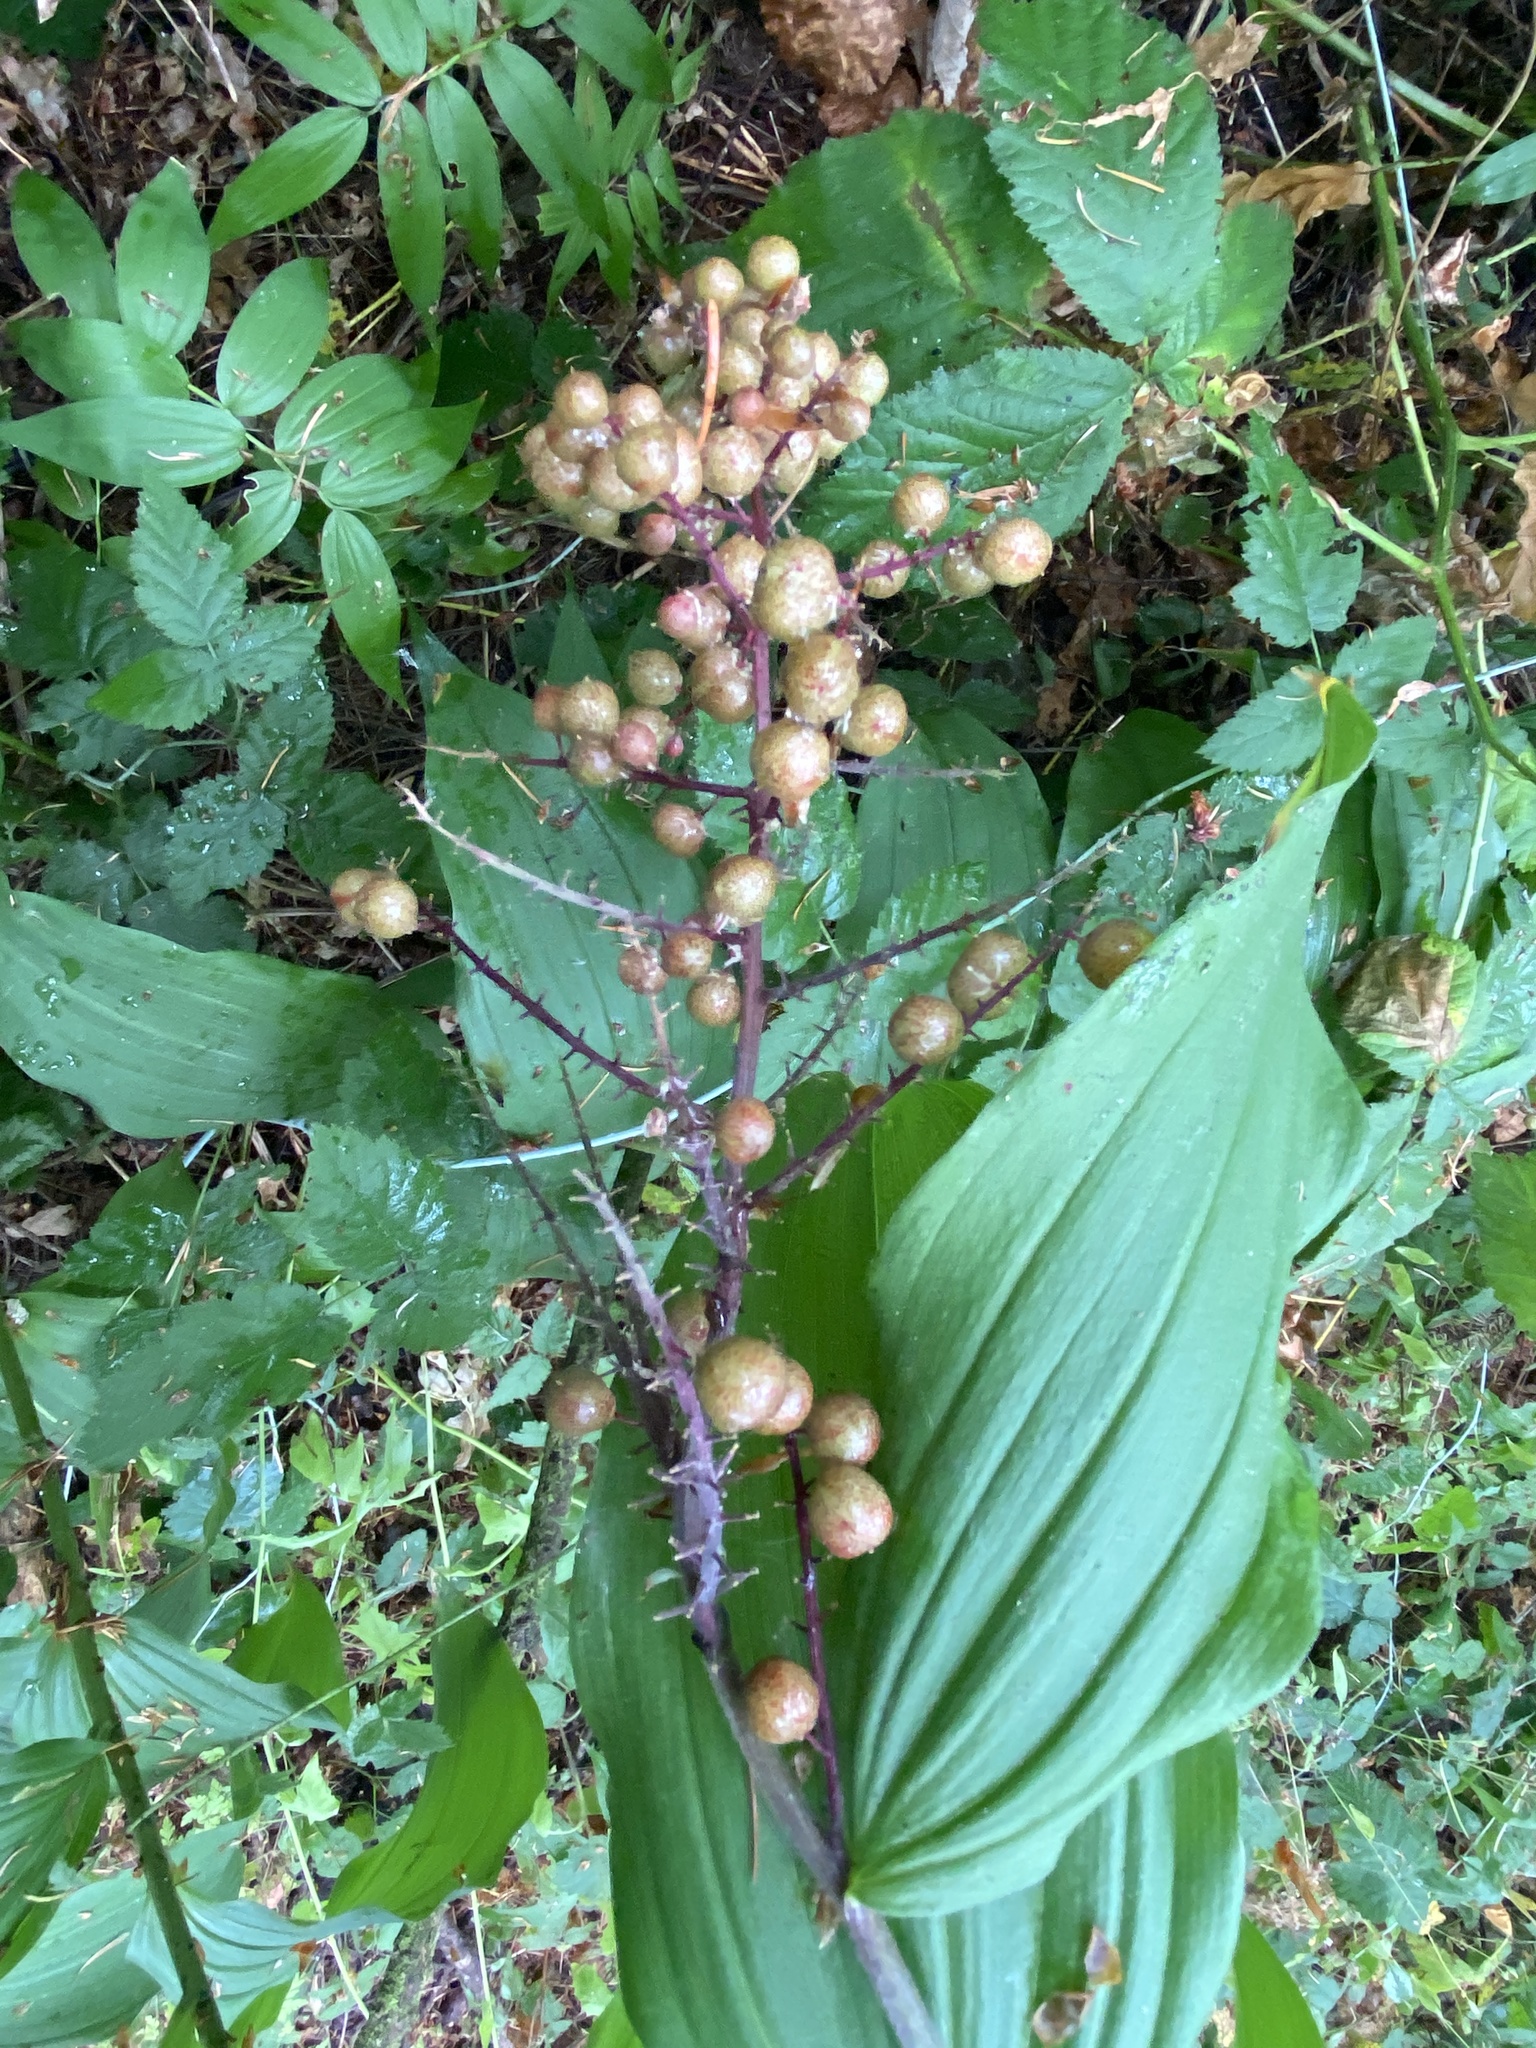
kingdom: Plantae
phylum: Tracheophyta
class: Liliopsida
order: Asparagales
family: Asparagaceae
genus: Maianthemum
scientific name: Maianthemum racemosum
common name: False spikenard
